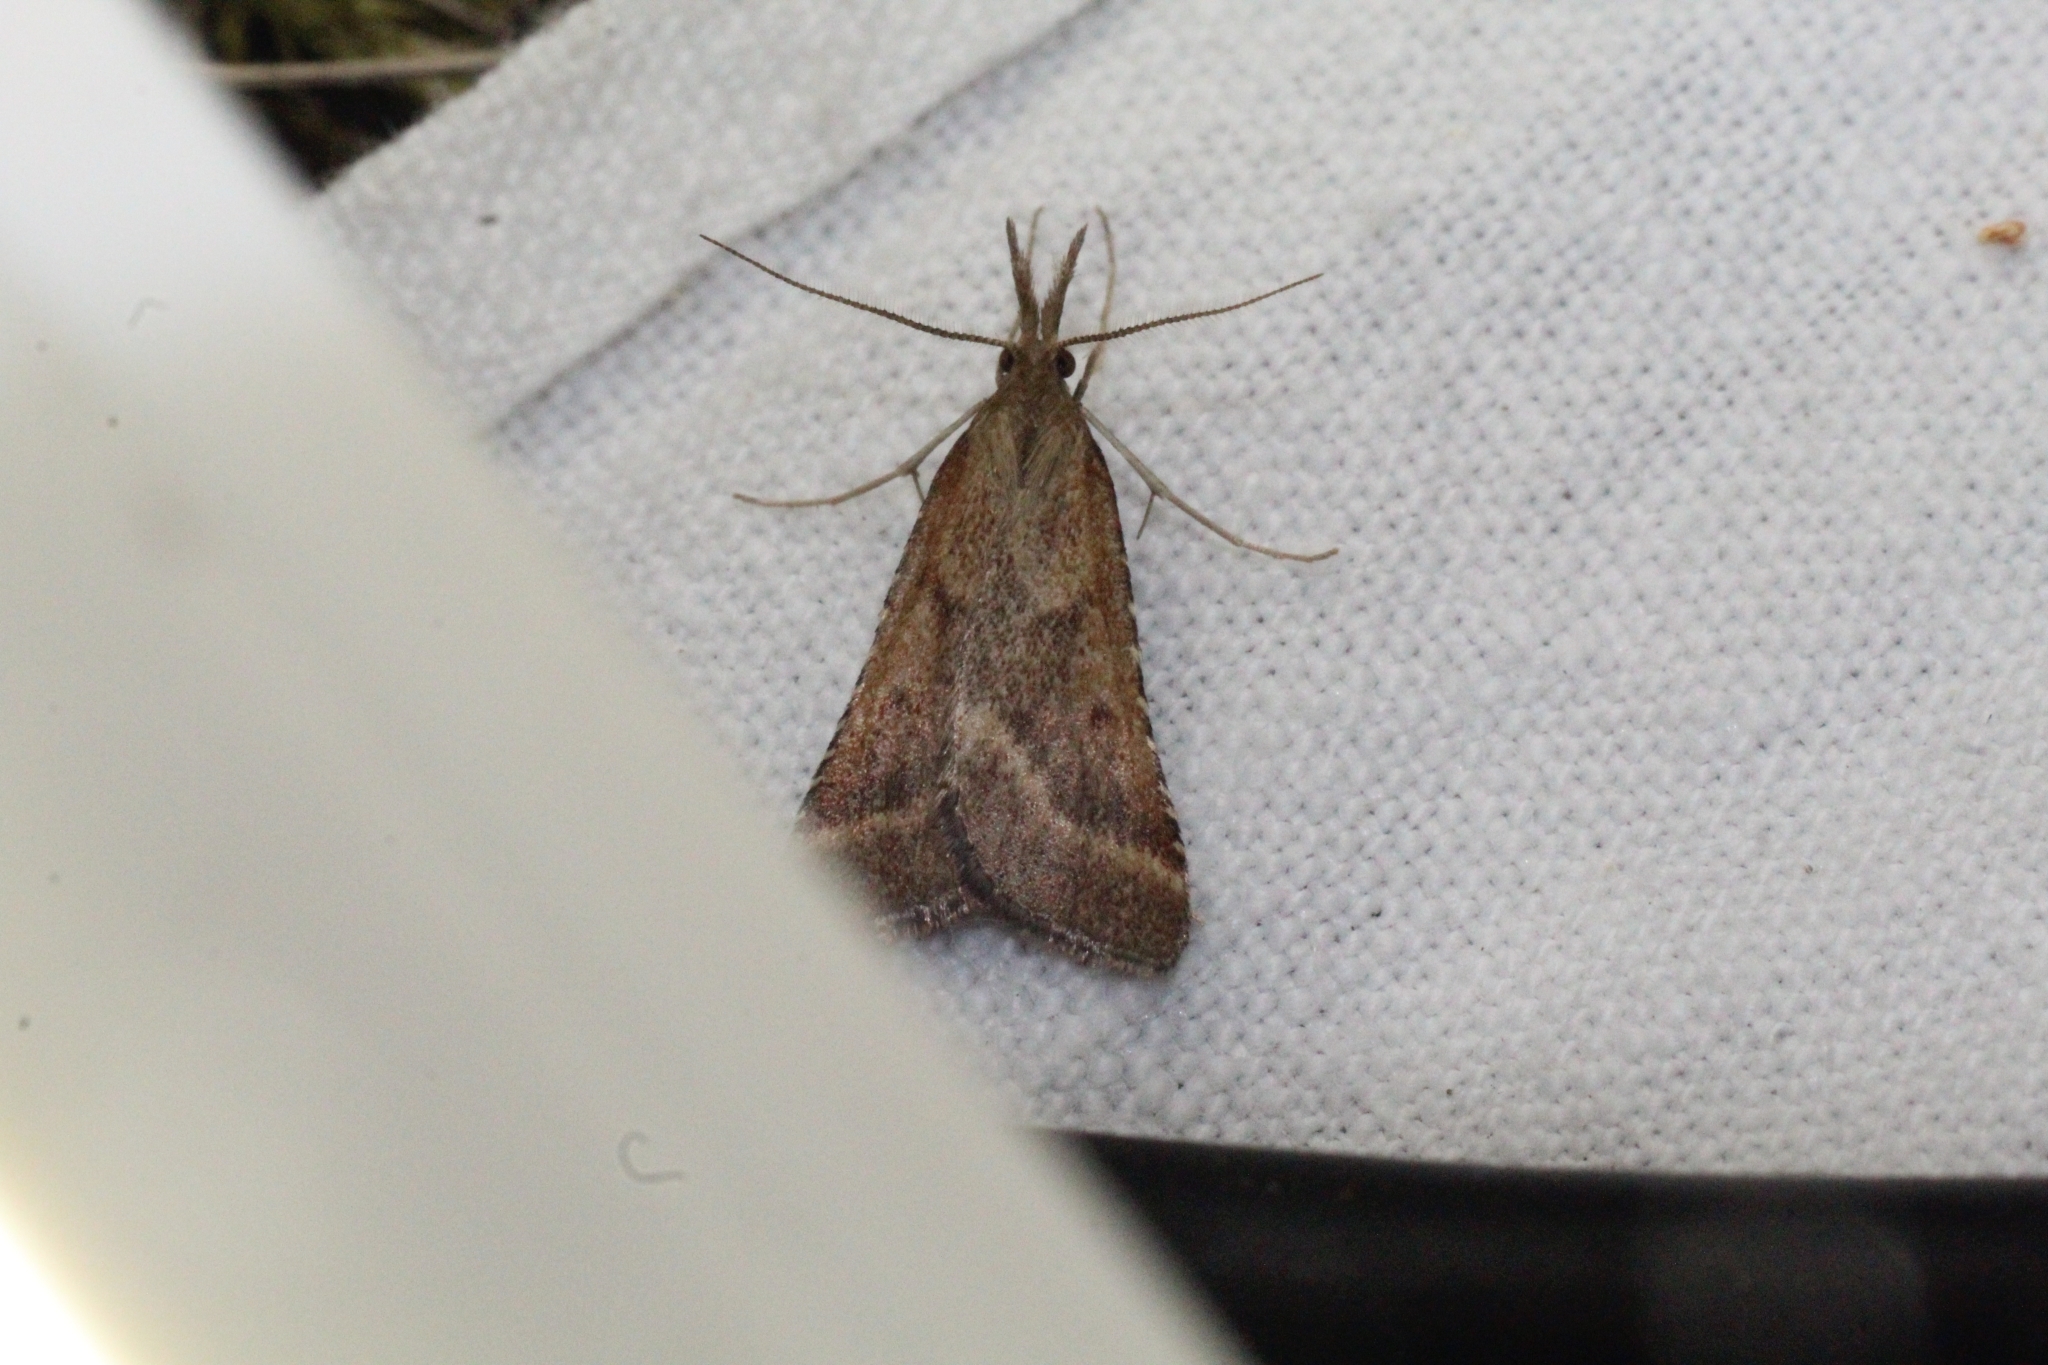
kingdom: Animalia
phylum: Arthropoda
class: Insecta
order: Lepidoptera
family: Pyralidae
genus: Synaphe
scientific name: Synaphe punctalis
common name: Long-legged tabby
